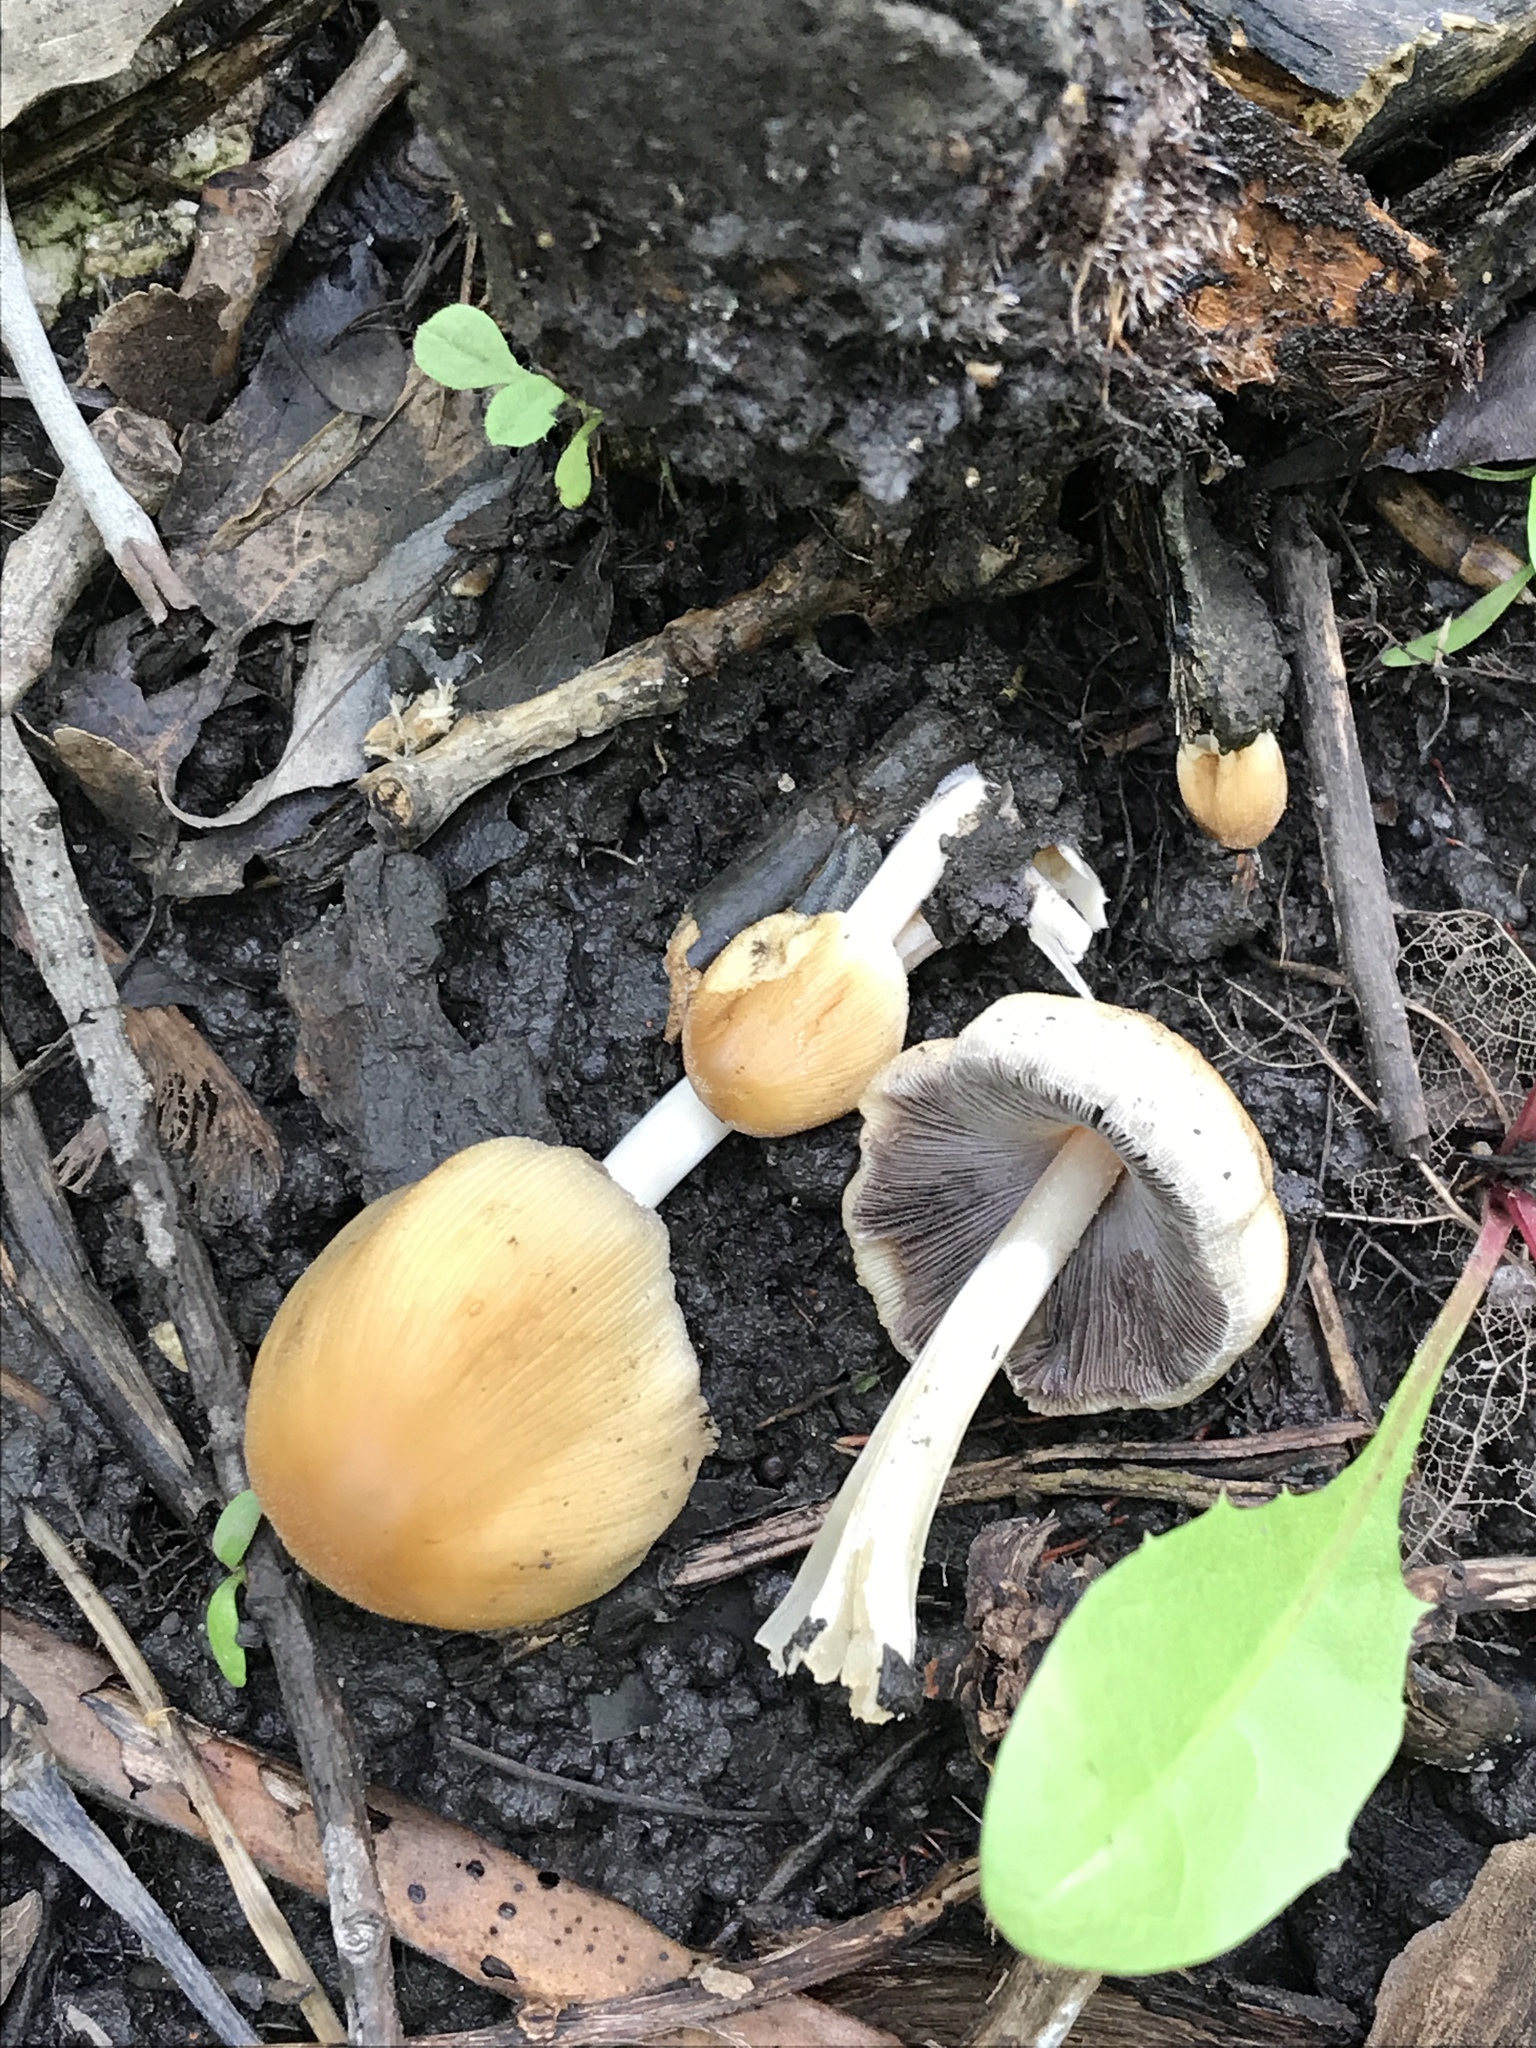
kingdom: Fungi
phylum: Basidiomycota
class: Agaricomycetes
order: Agaricales
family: Psathyrellaceae
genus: Coprinellus
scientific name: Coprinellus micaceus
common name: Glistening ink-cap
